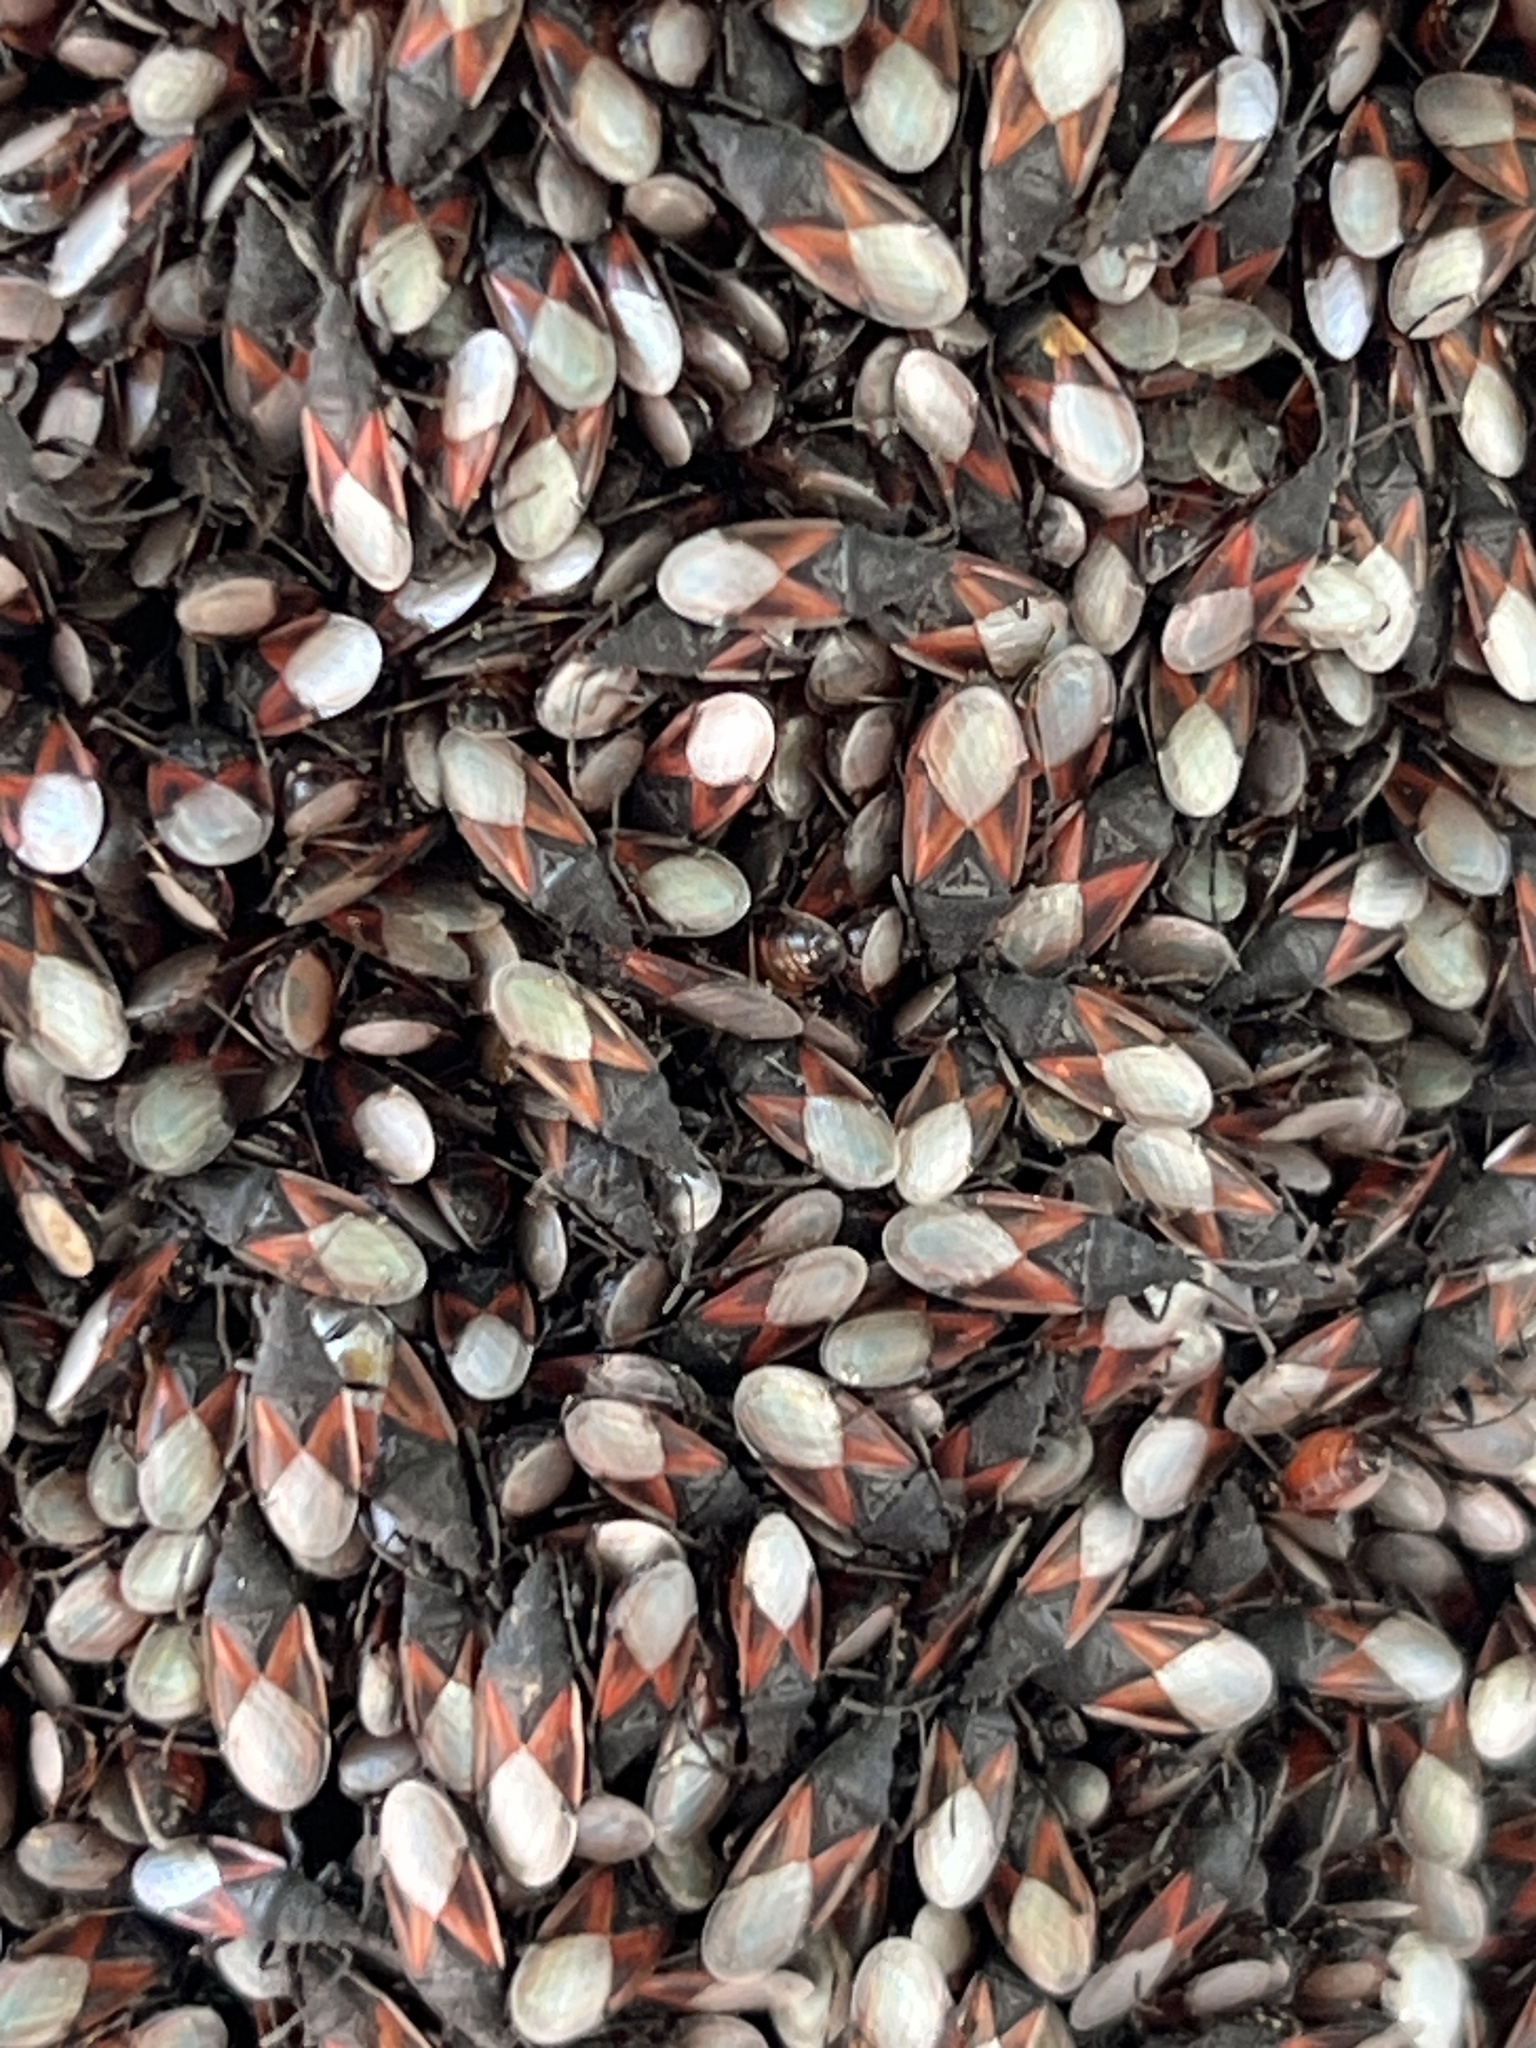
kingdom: Animalia
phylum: Arthropoda
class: Insecta
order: Hemiptera
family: Oxycarenidae
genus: Oxycarenus
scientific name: Oxycarenus lavaterae
